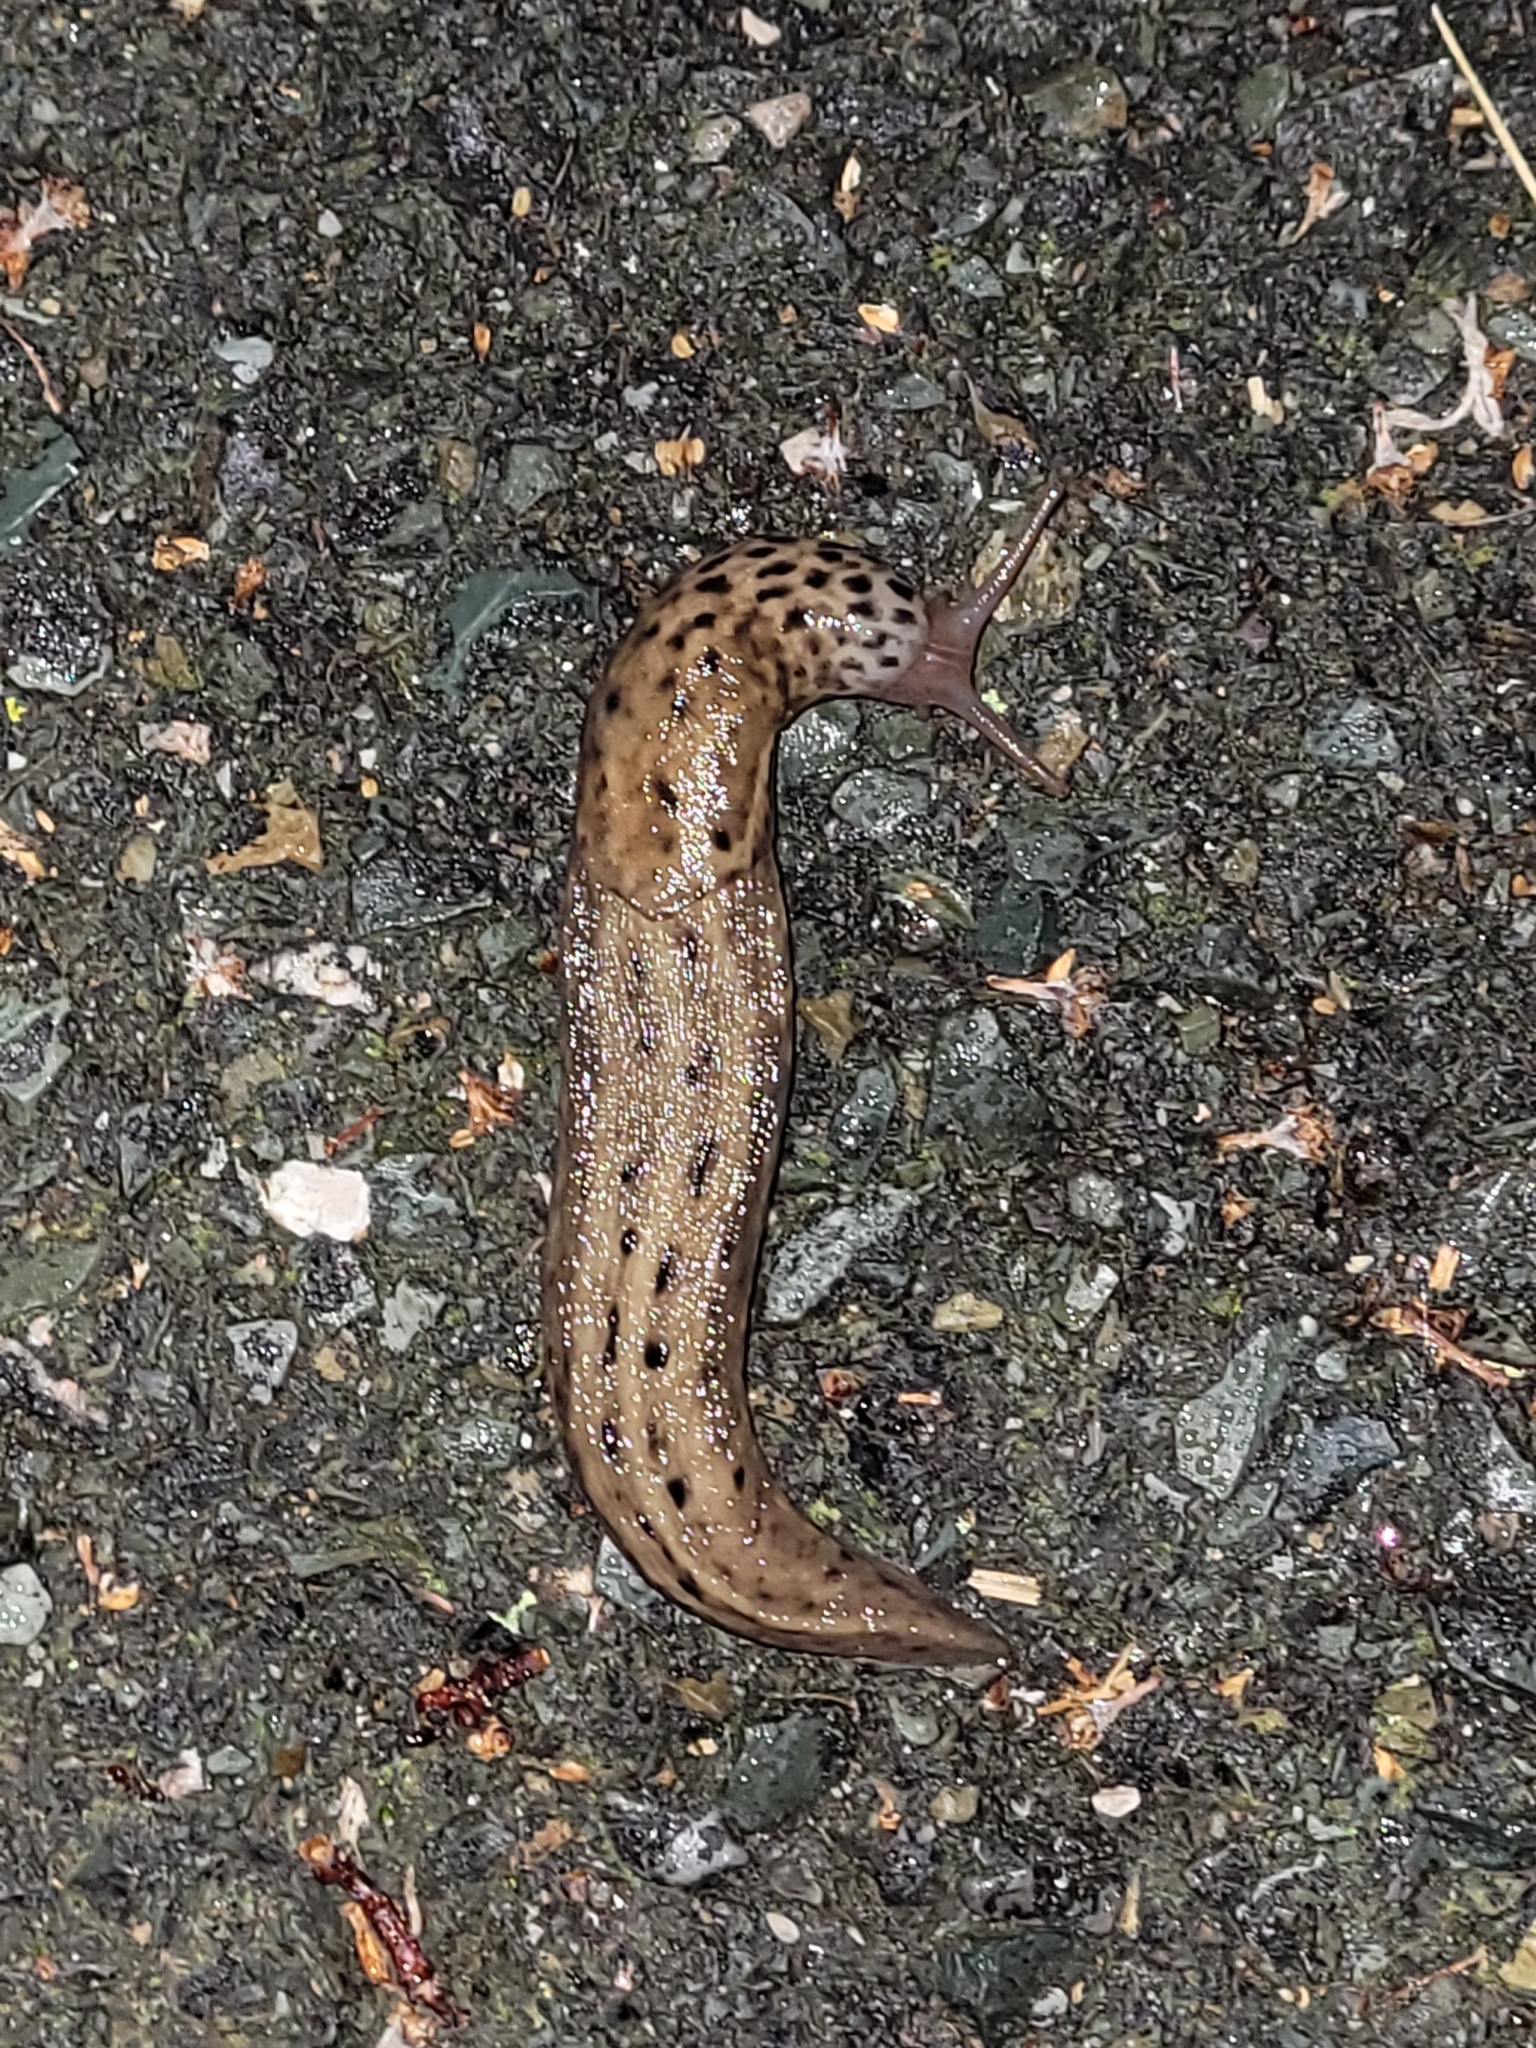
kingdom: Animalia
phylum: Mollusca
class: Gastropoda
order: Stylommatophora
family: Limacidae
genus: Limax
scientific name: Limax maximus
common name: Great grey slug
